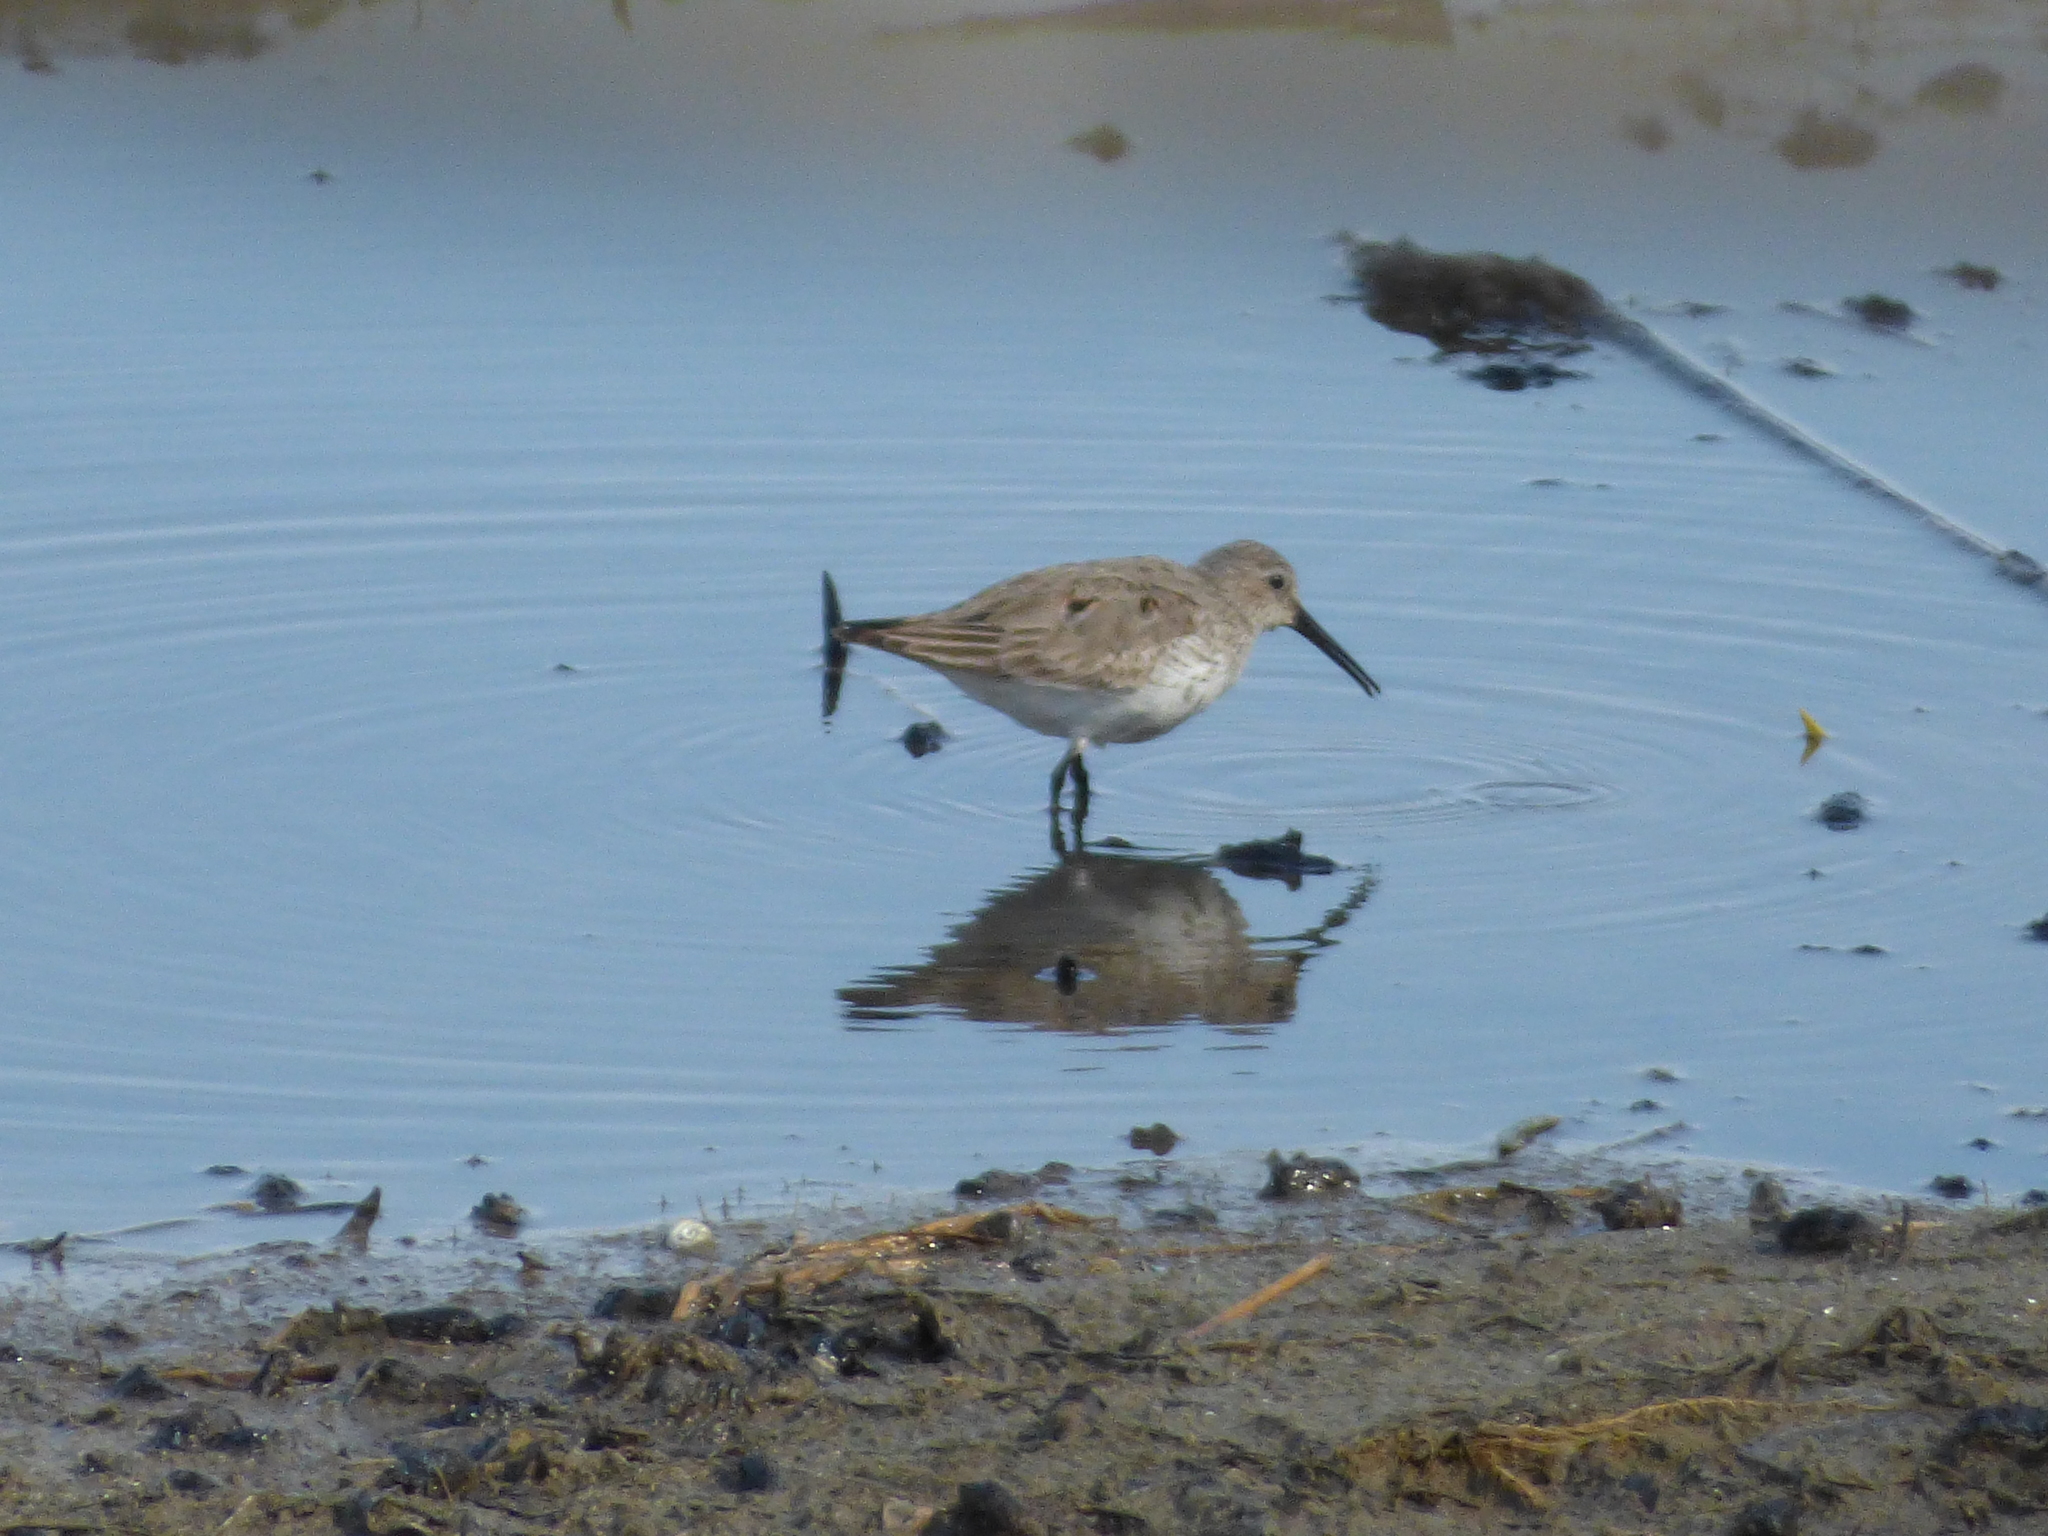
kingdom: Animalia
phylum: Chordata
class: Aves
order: Charadriiformes
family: Scolopacidae
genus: Calidris
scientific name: Calidris alpina
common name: Dunlin
